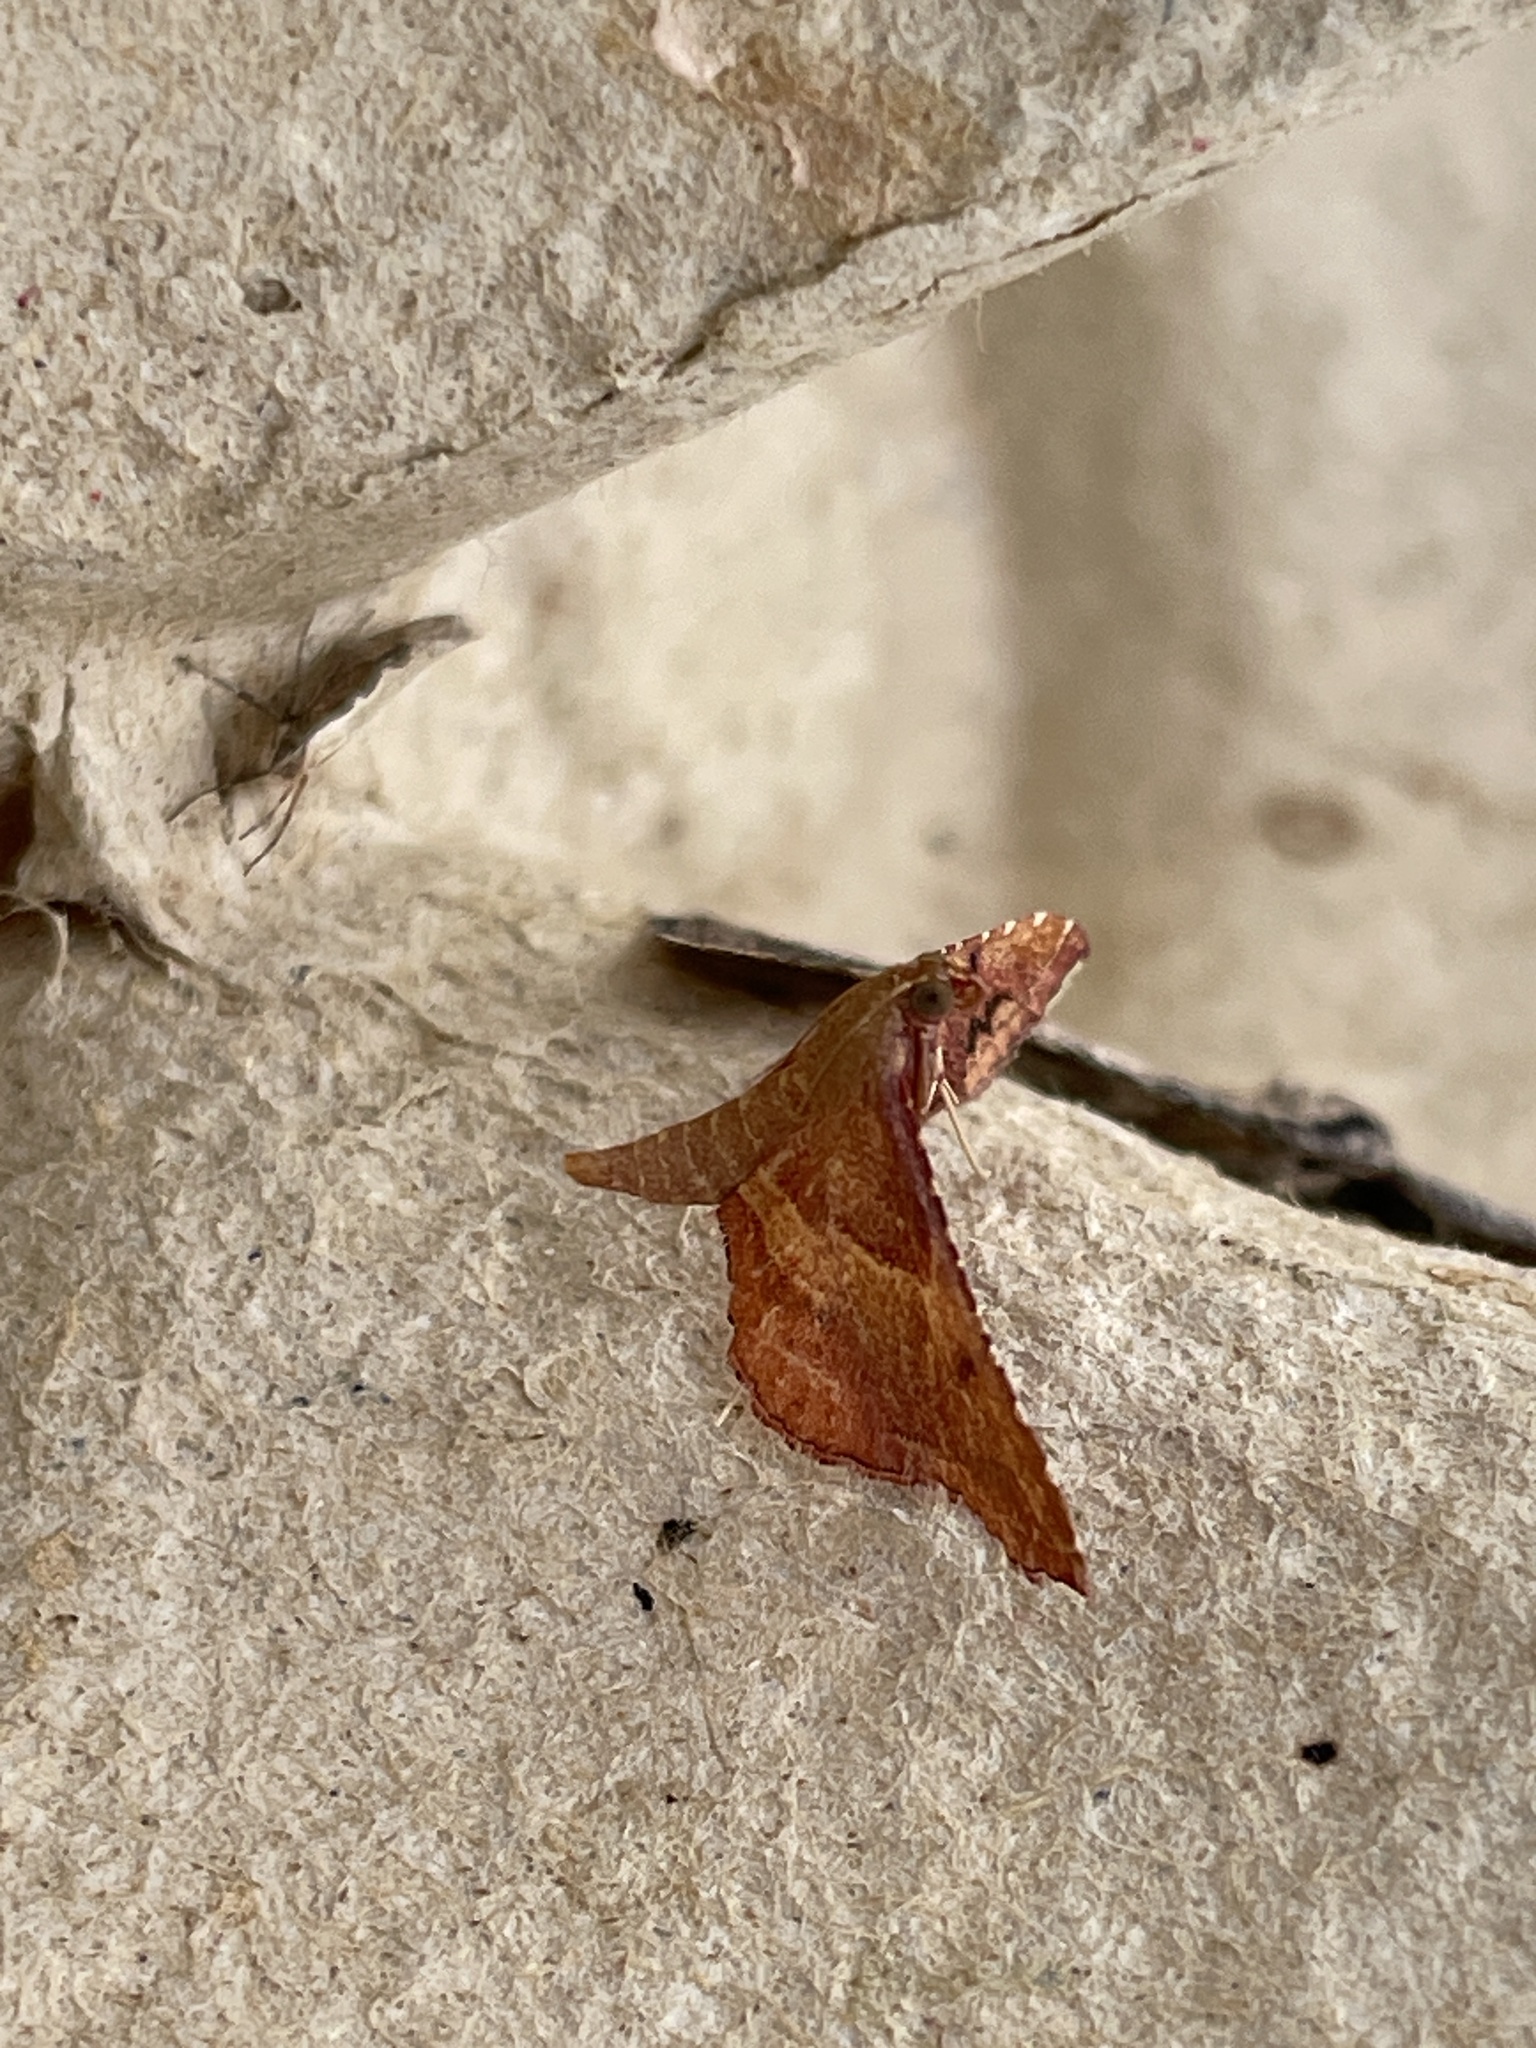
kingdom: Animalia
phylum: Arthropoda
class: Insecta
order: Lepidoptera
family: Pyralidae
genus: Endotricha
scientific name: Endotricha flammealis
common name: Rosy tabby
